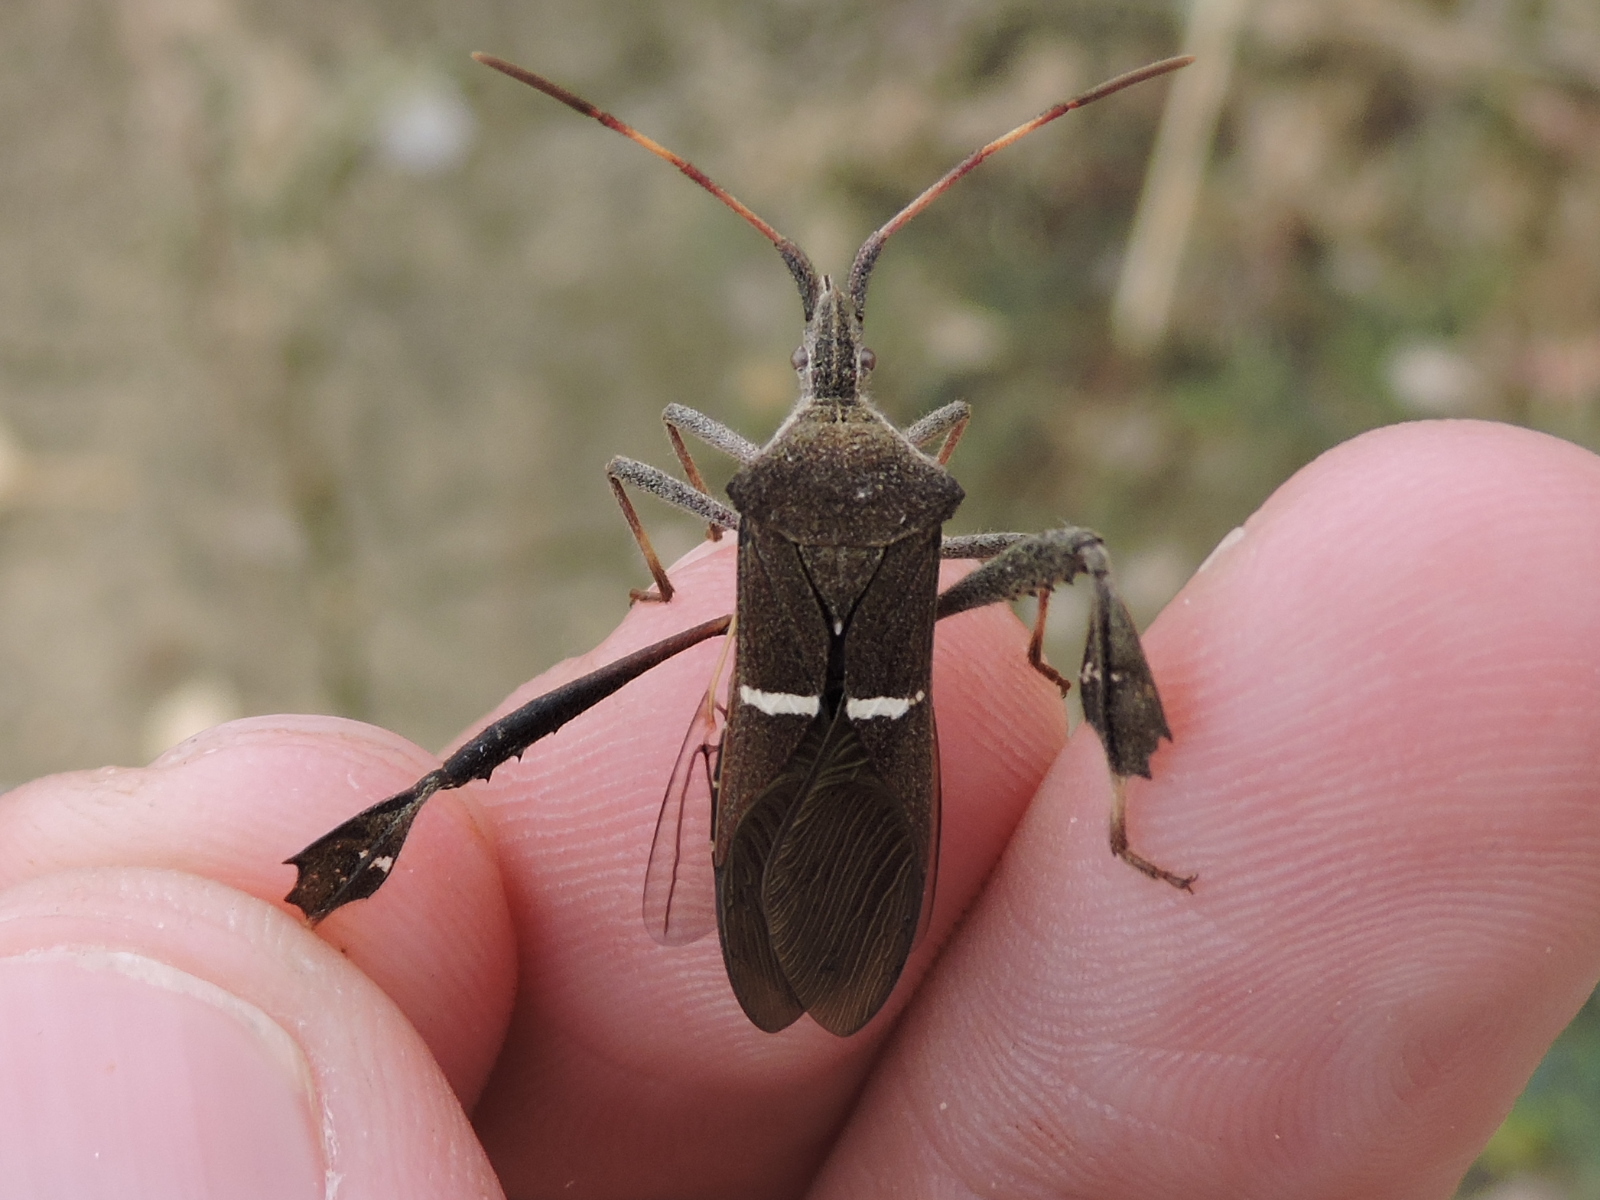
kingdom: Animalia
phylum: Arthropoda
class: Insecta
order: Hemiptera
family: Coreidae
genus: Leptoglossus
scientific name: Leptoglossus phyllopus
